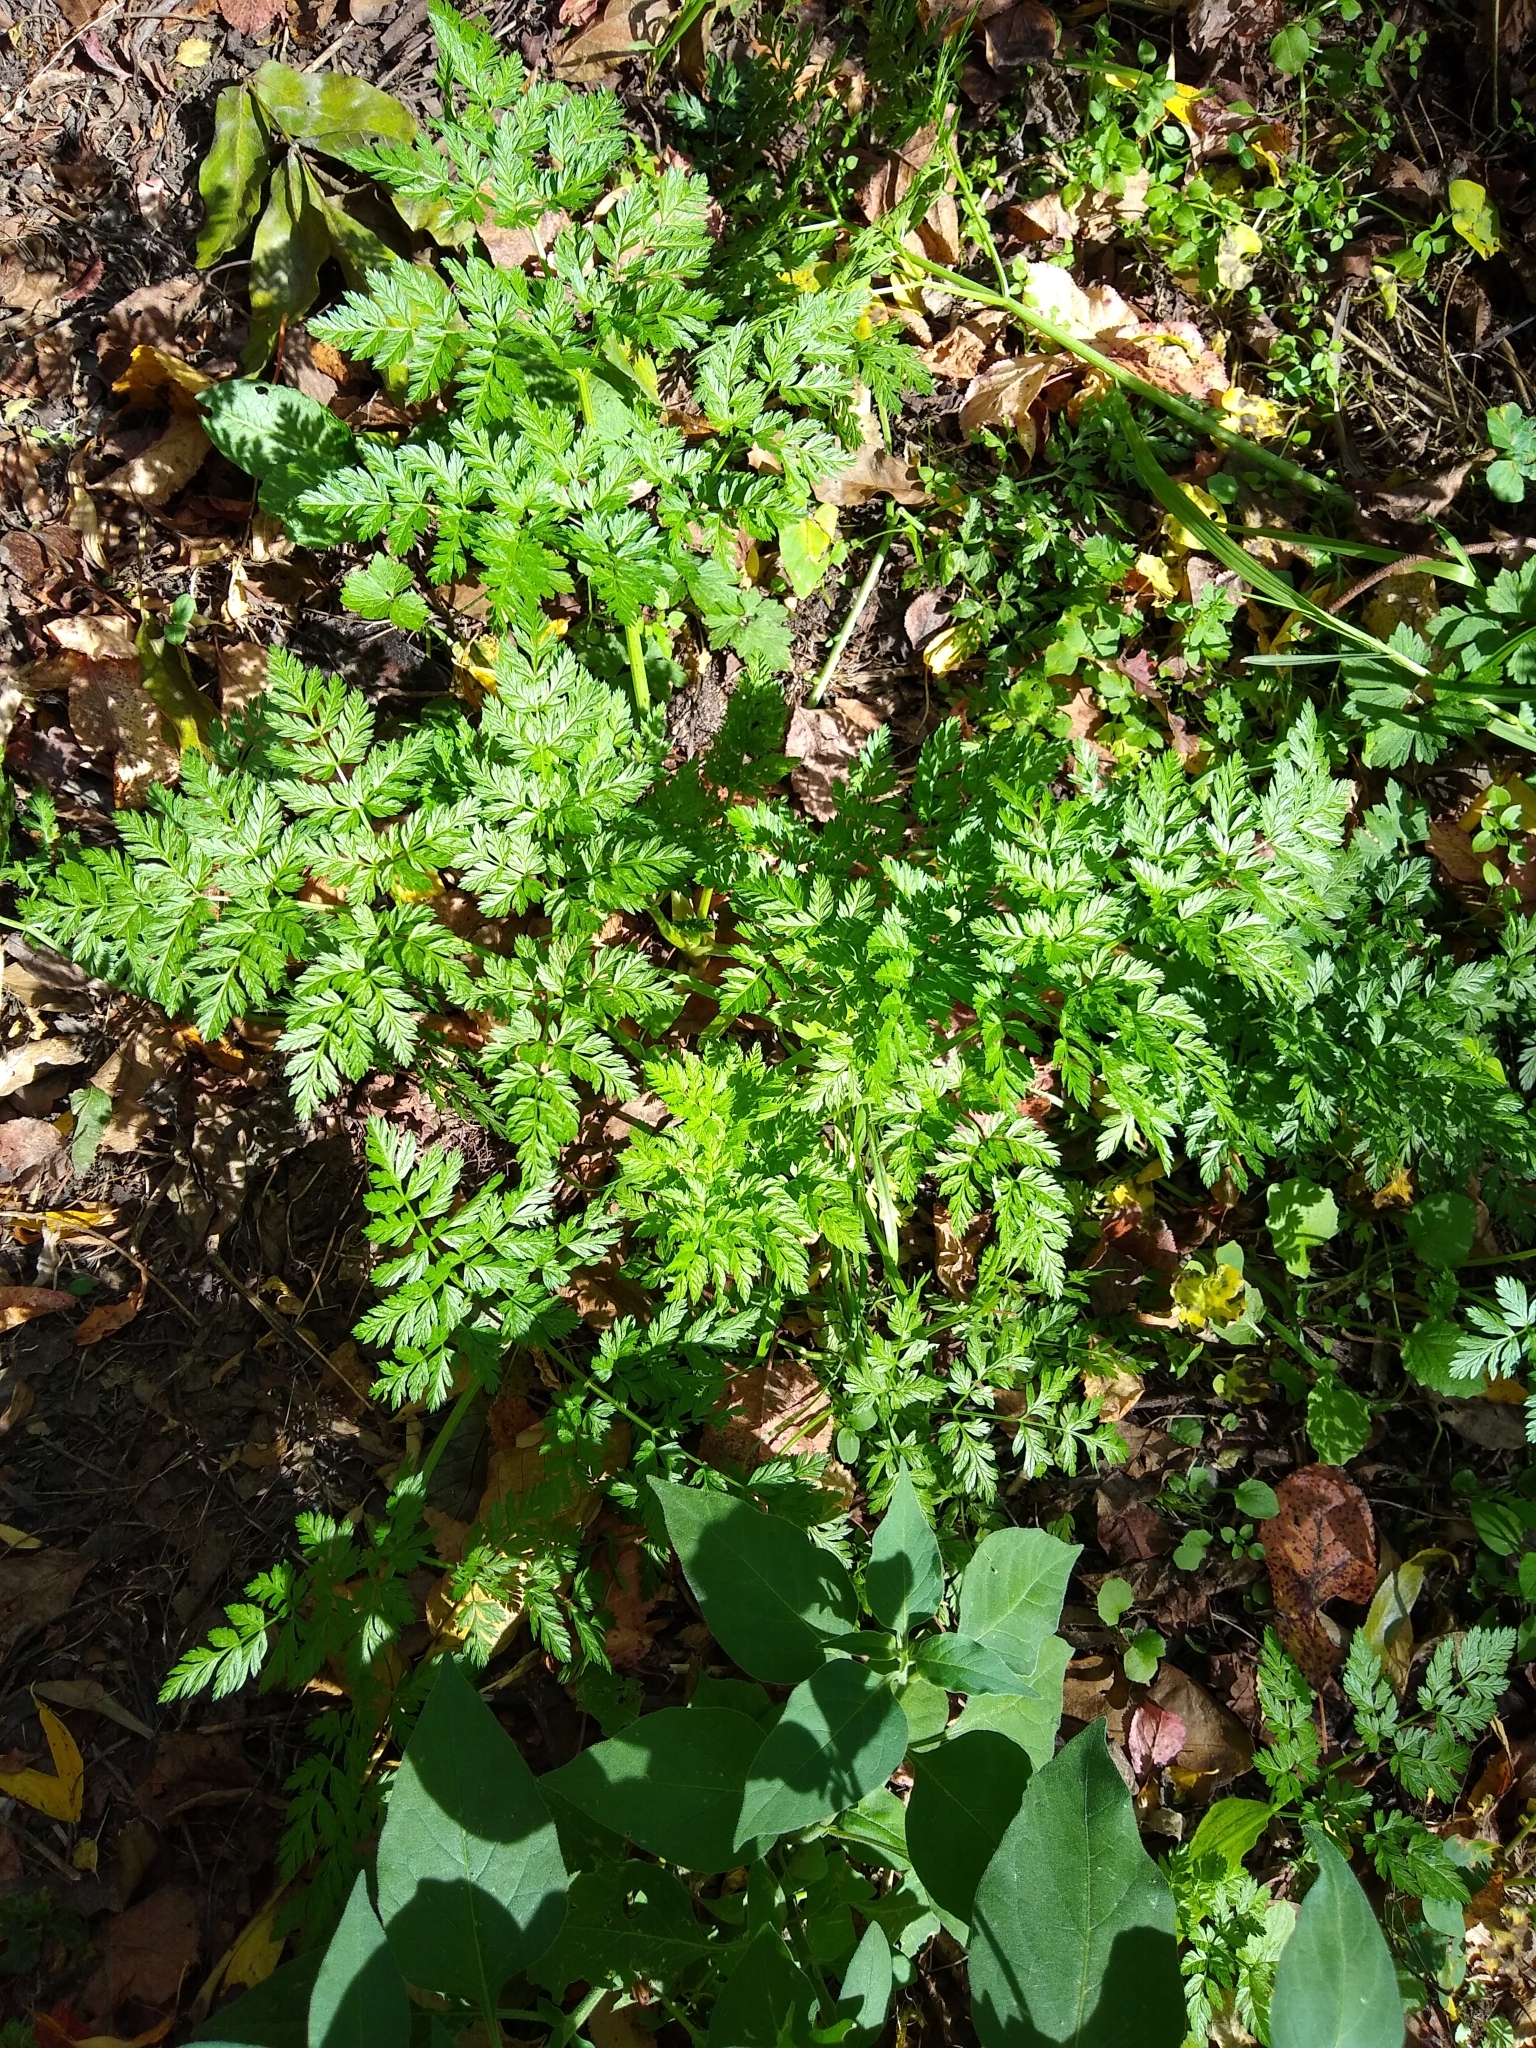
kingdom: Plantae
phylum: Tracheophyta
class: Magnoliopsida
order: Apiales
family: Apiaceae
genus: Conium
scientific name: Conium maculatum
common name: Hemlock
